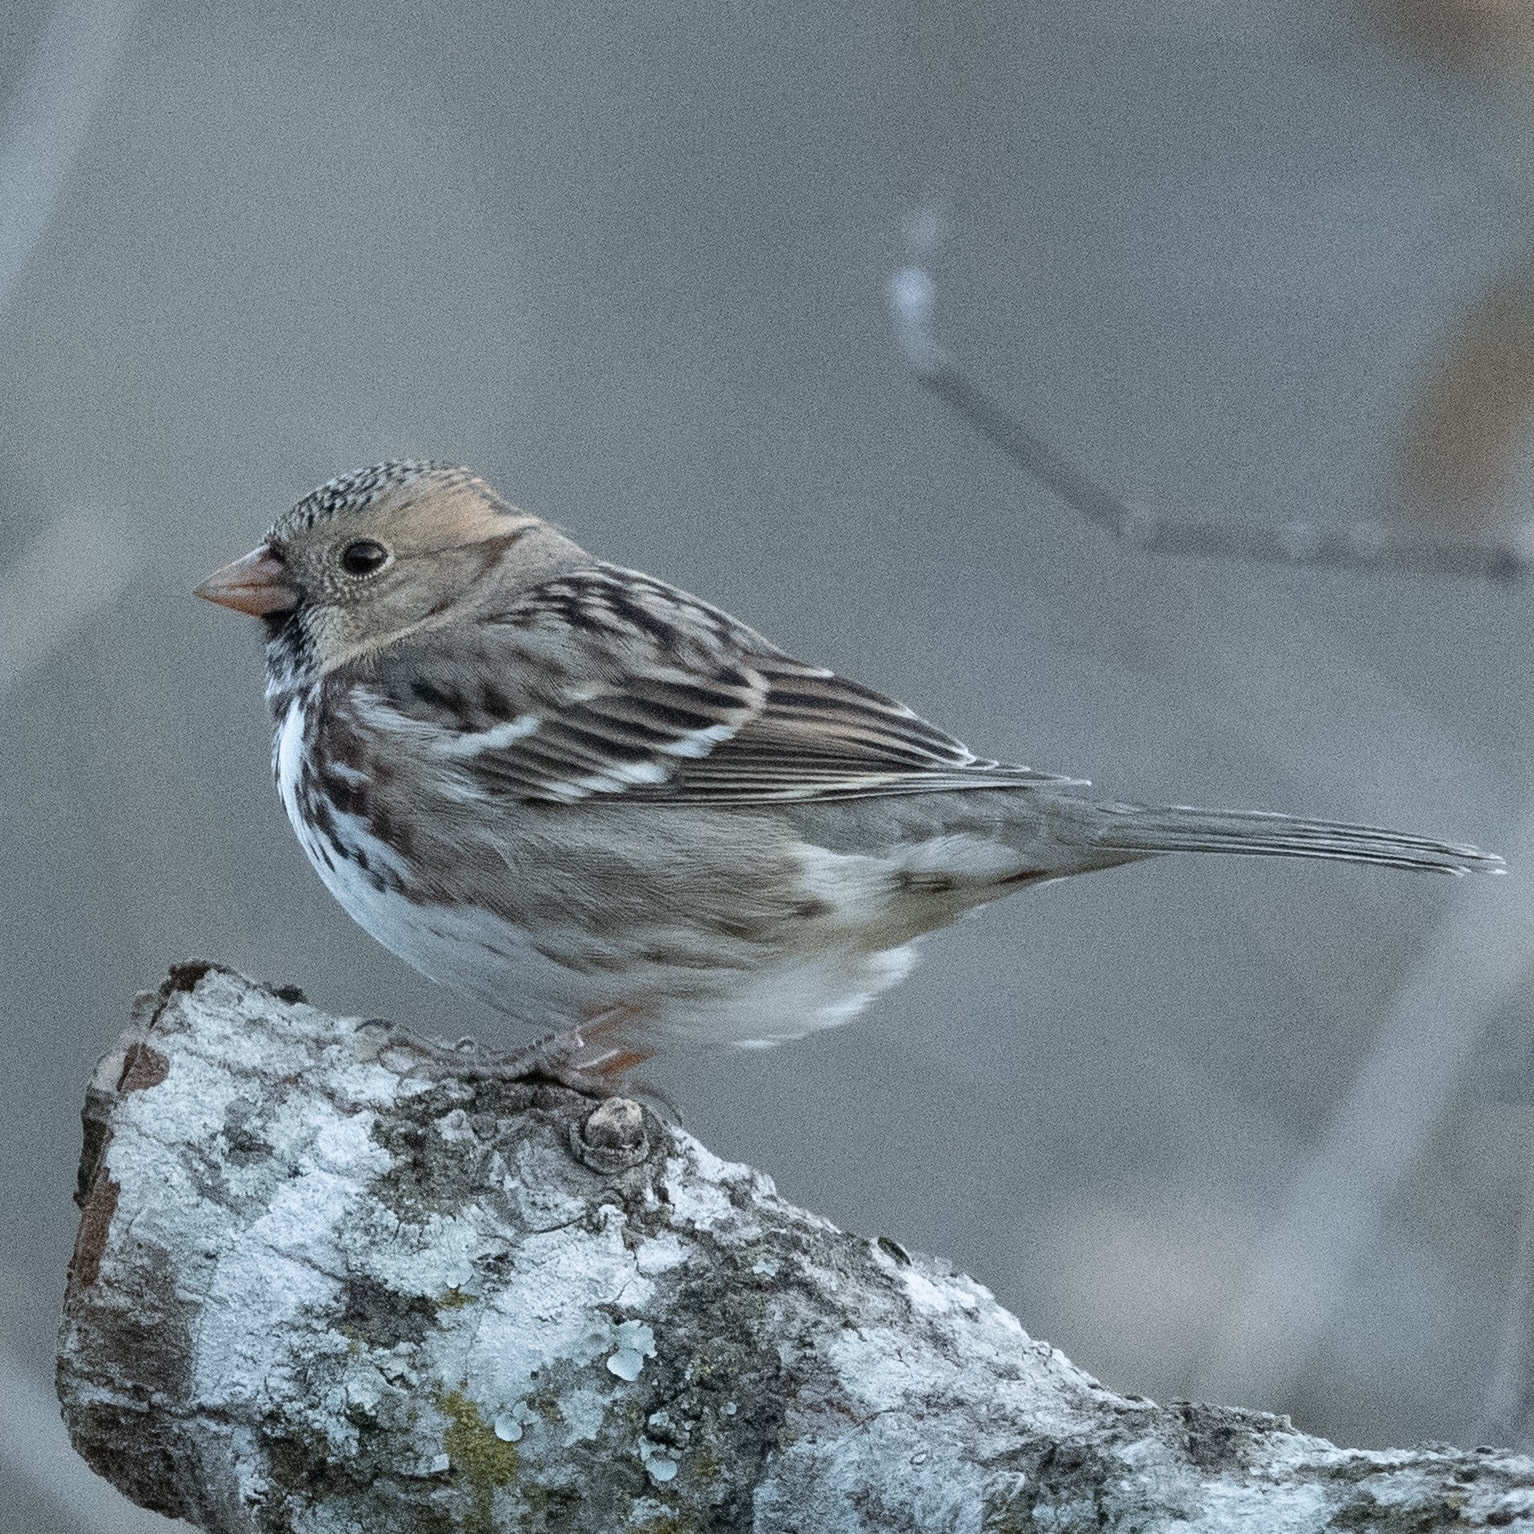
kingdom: Animalia
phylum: Chordata
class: Aves
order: Passeriformes
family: Passerellidae
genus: Zonotrichia
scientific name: Zonotrichia querula
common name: Harris's sparrow
